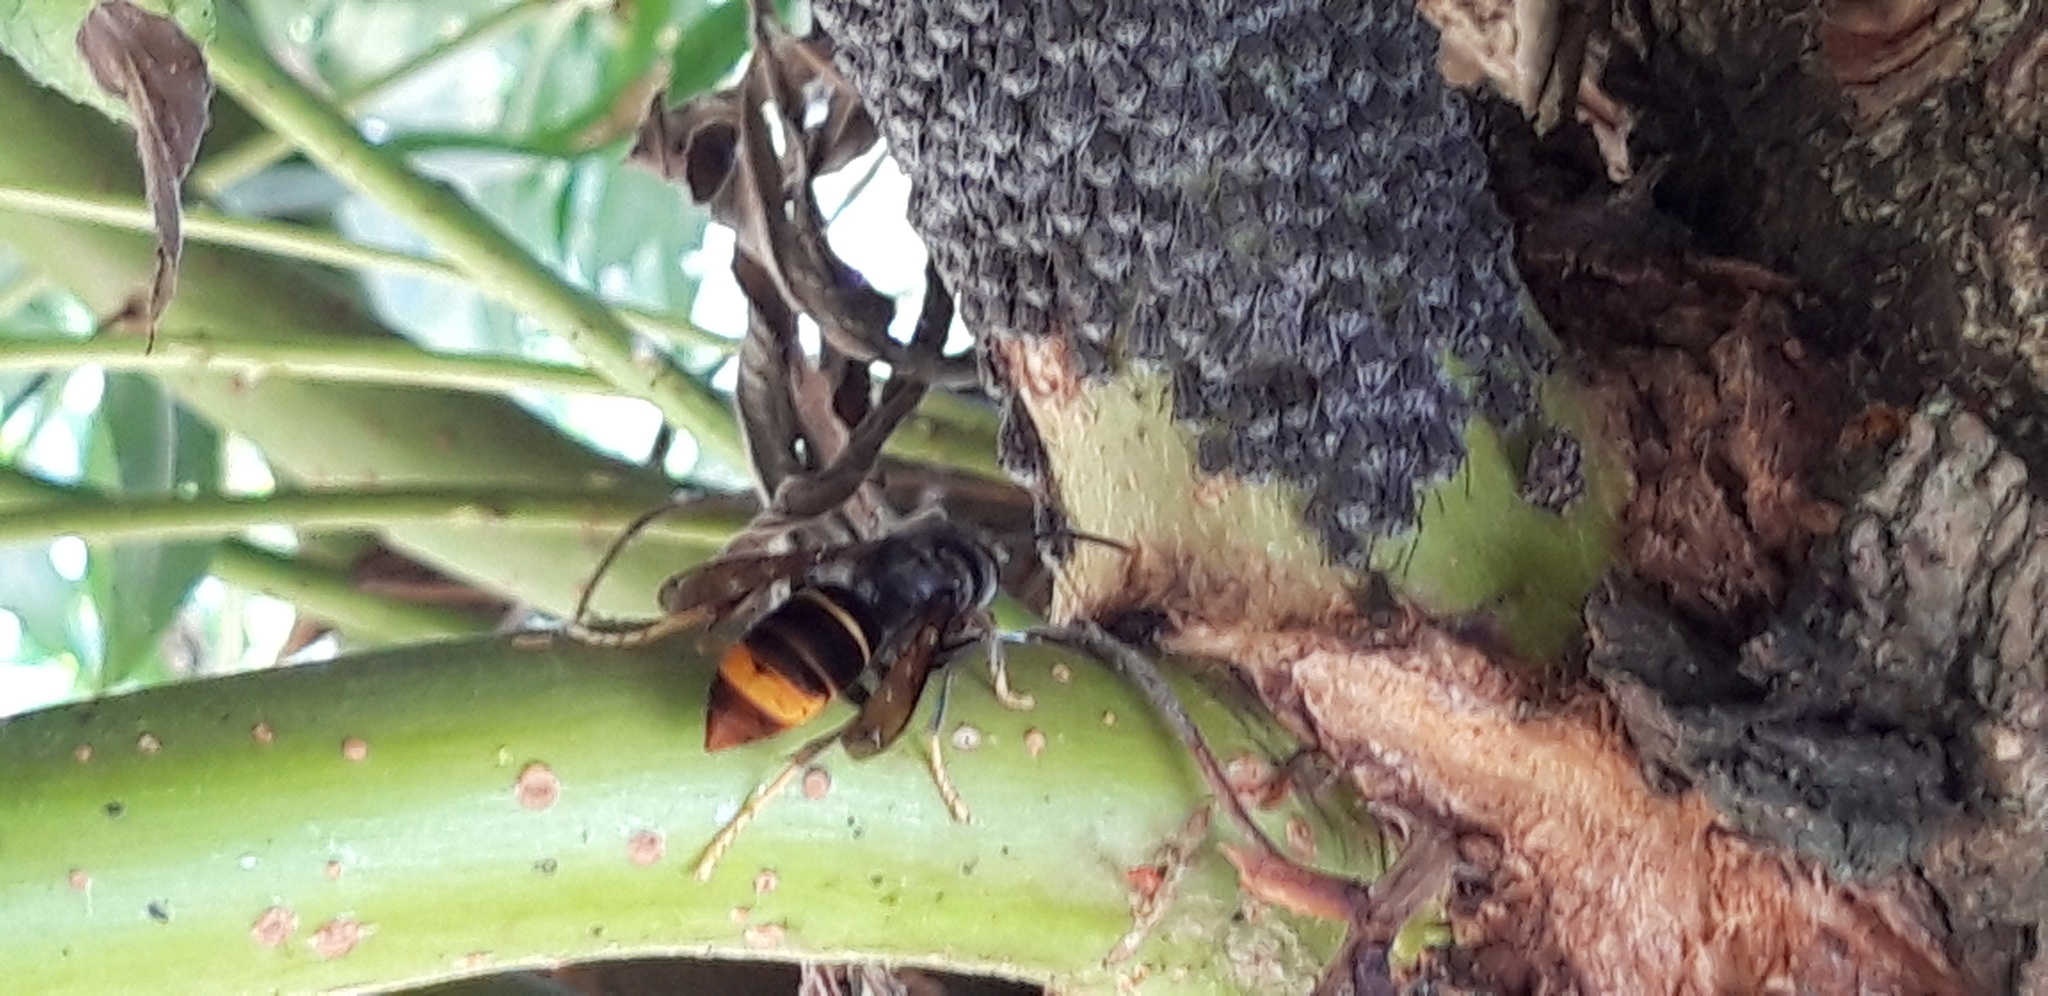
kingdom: Animalia
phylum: Arthropoda
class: Insecta
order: Hymenoptera
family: Vespidae
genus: Vespa
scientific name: Vespa velutina
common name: Asian hornet
